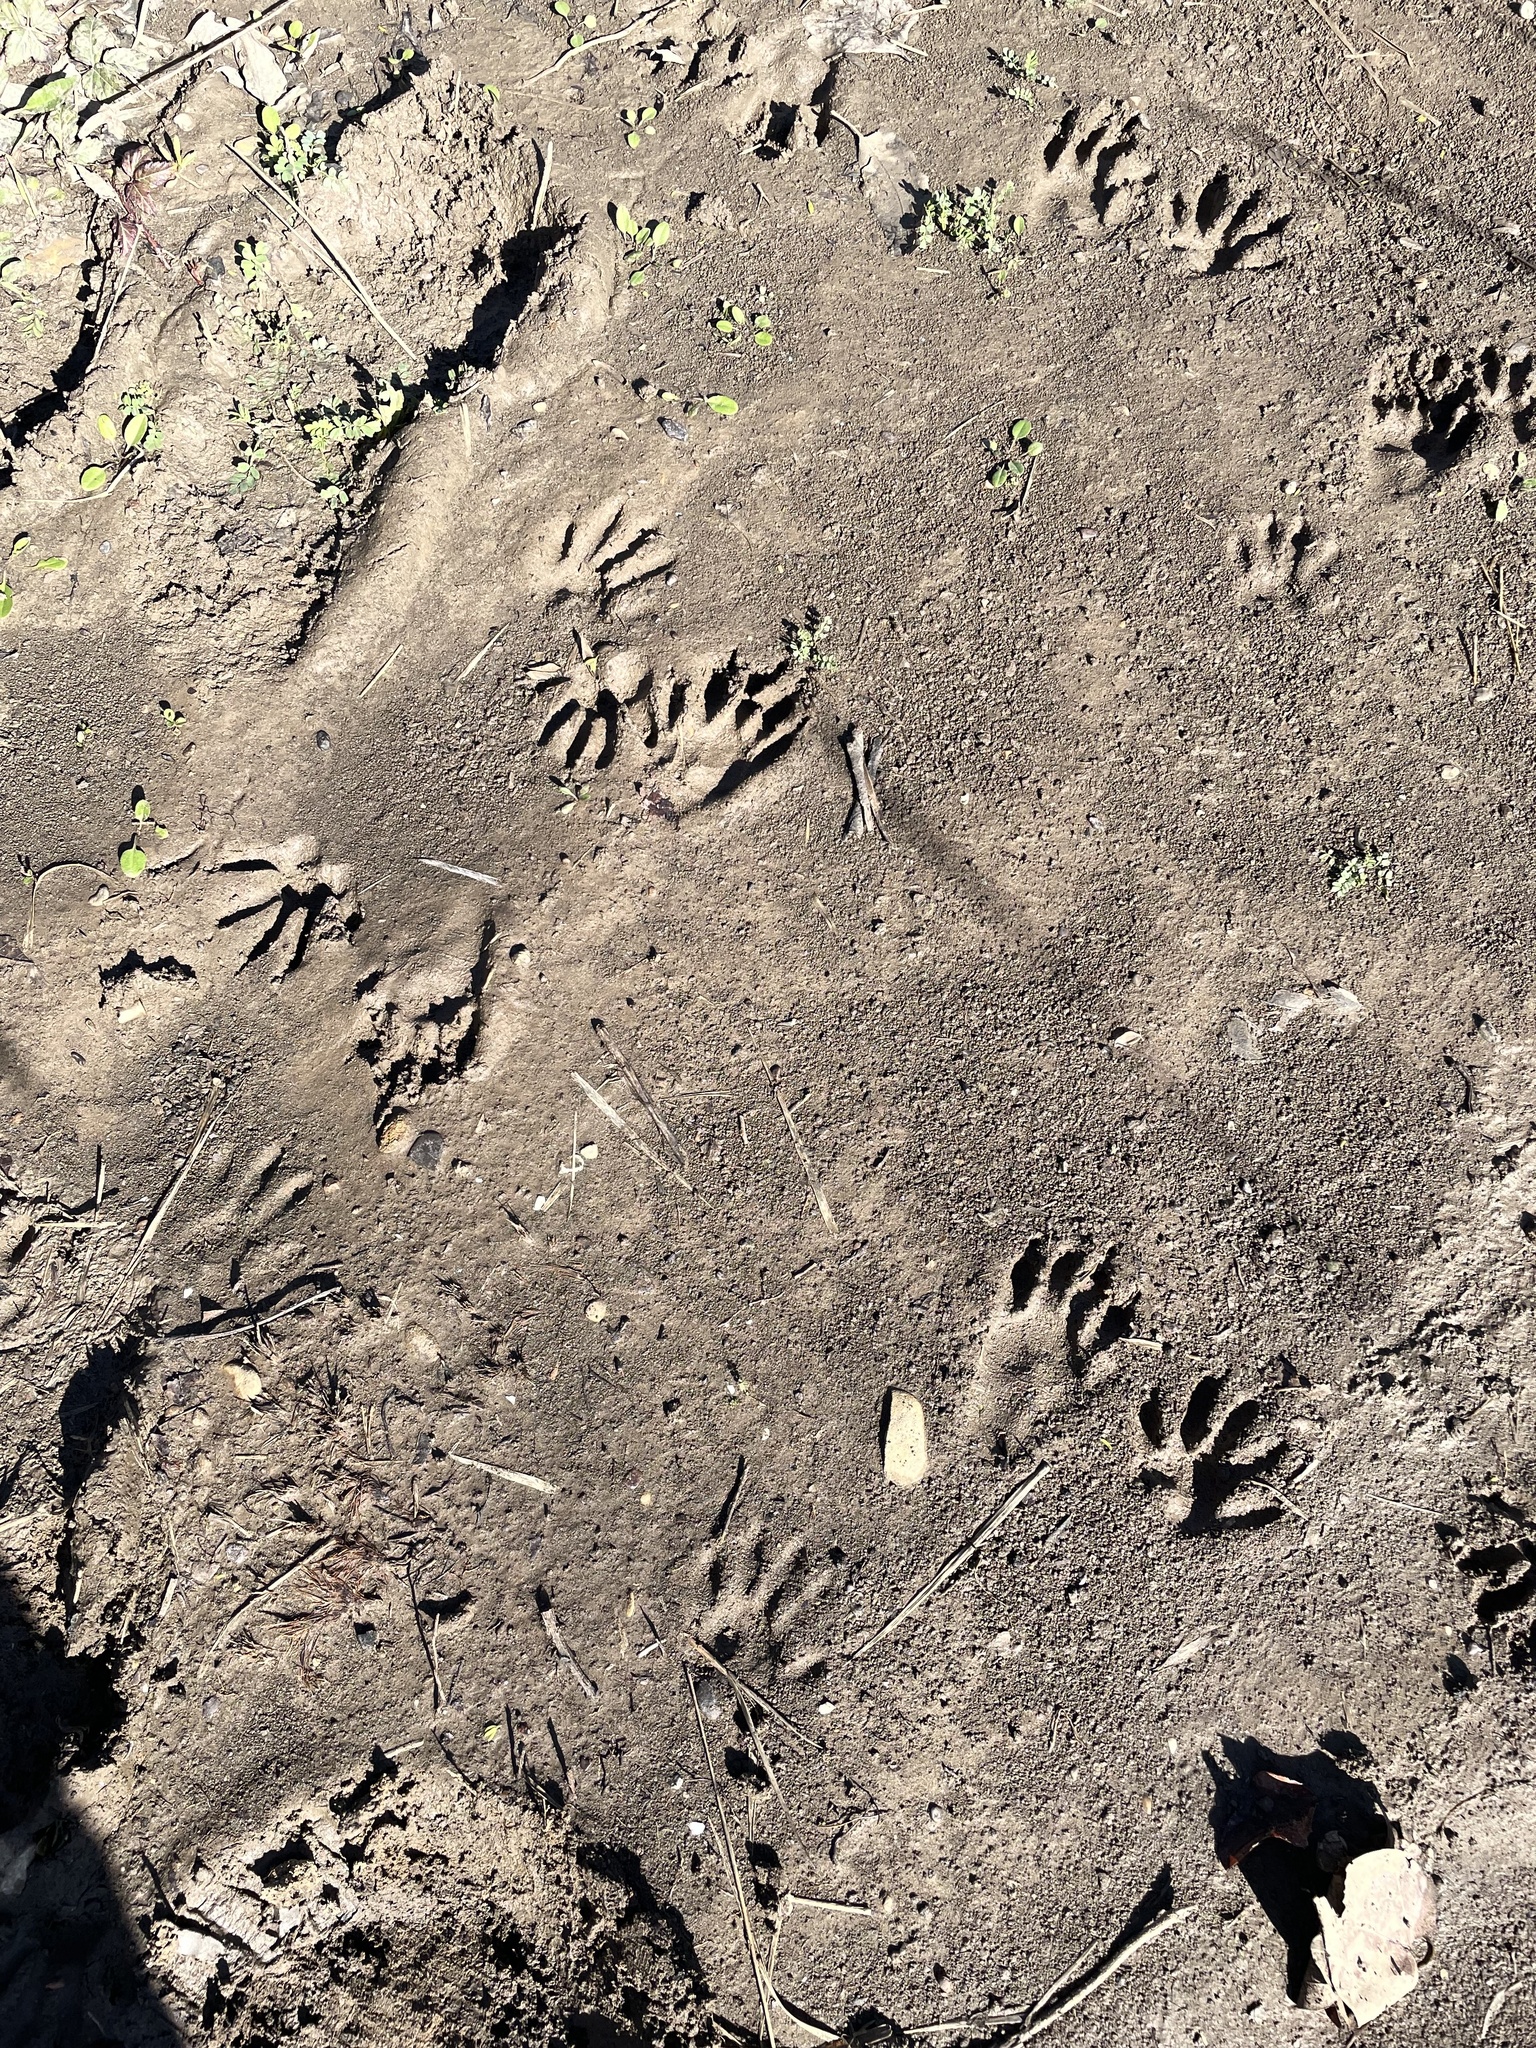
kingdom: Animalia
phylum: Chordata
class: Mammalia
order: Carnivora
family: Procyonidae
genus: Procyon
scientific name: Procyon lotor
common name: Raccoon
